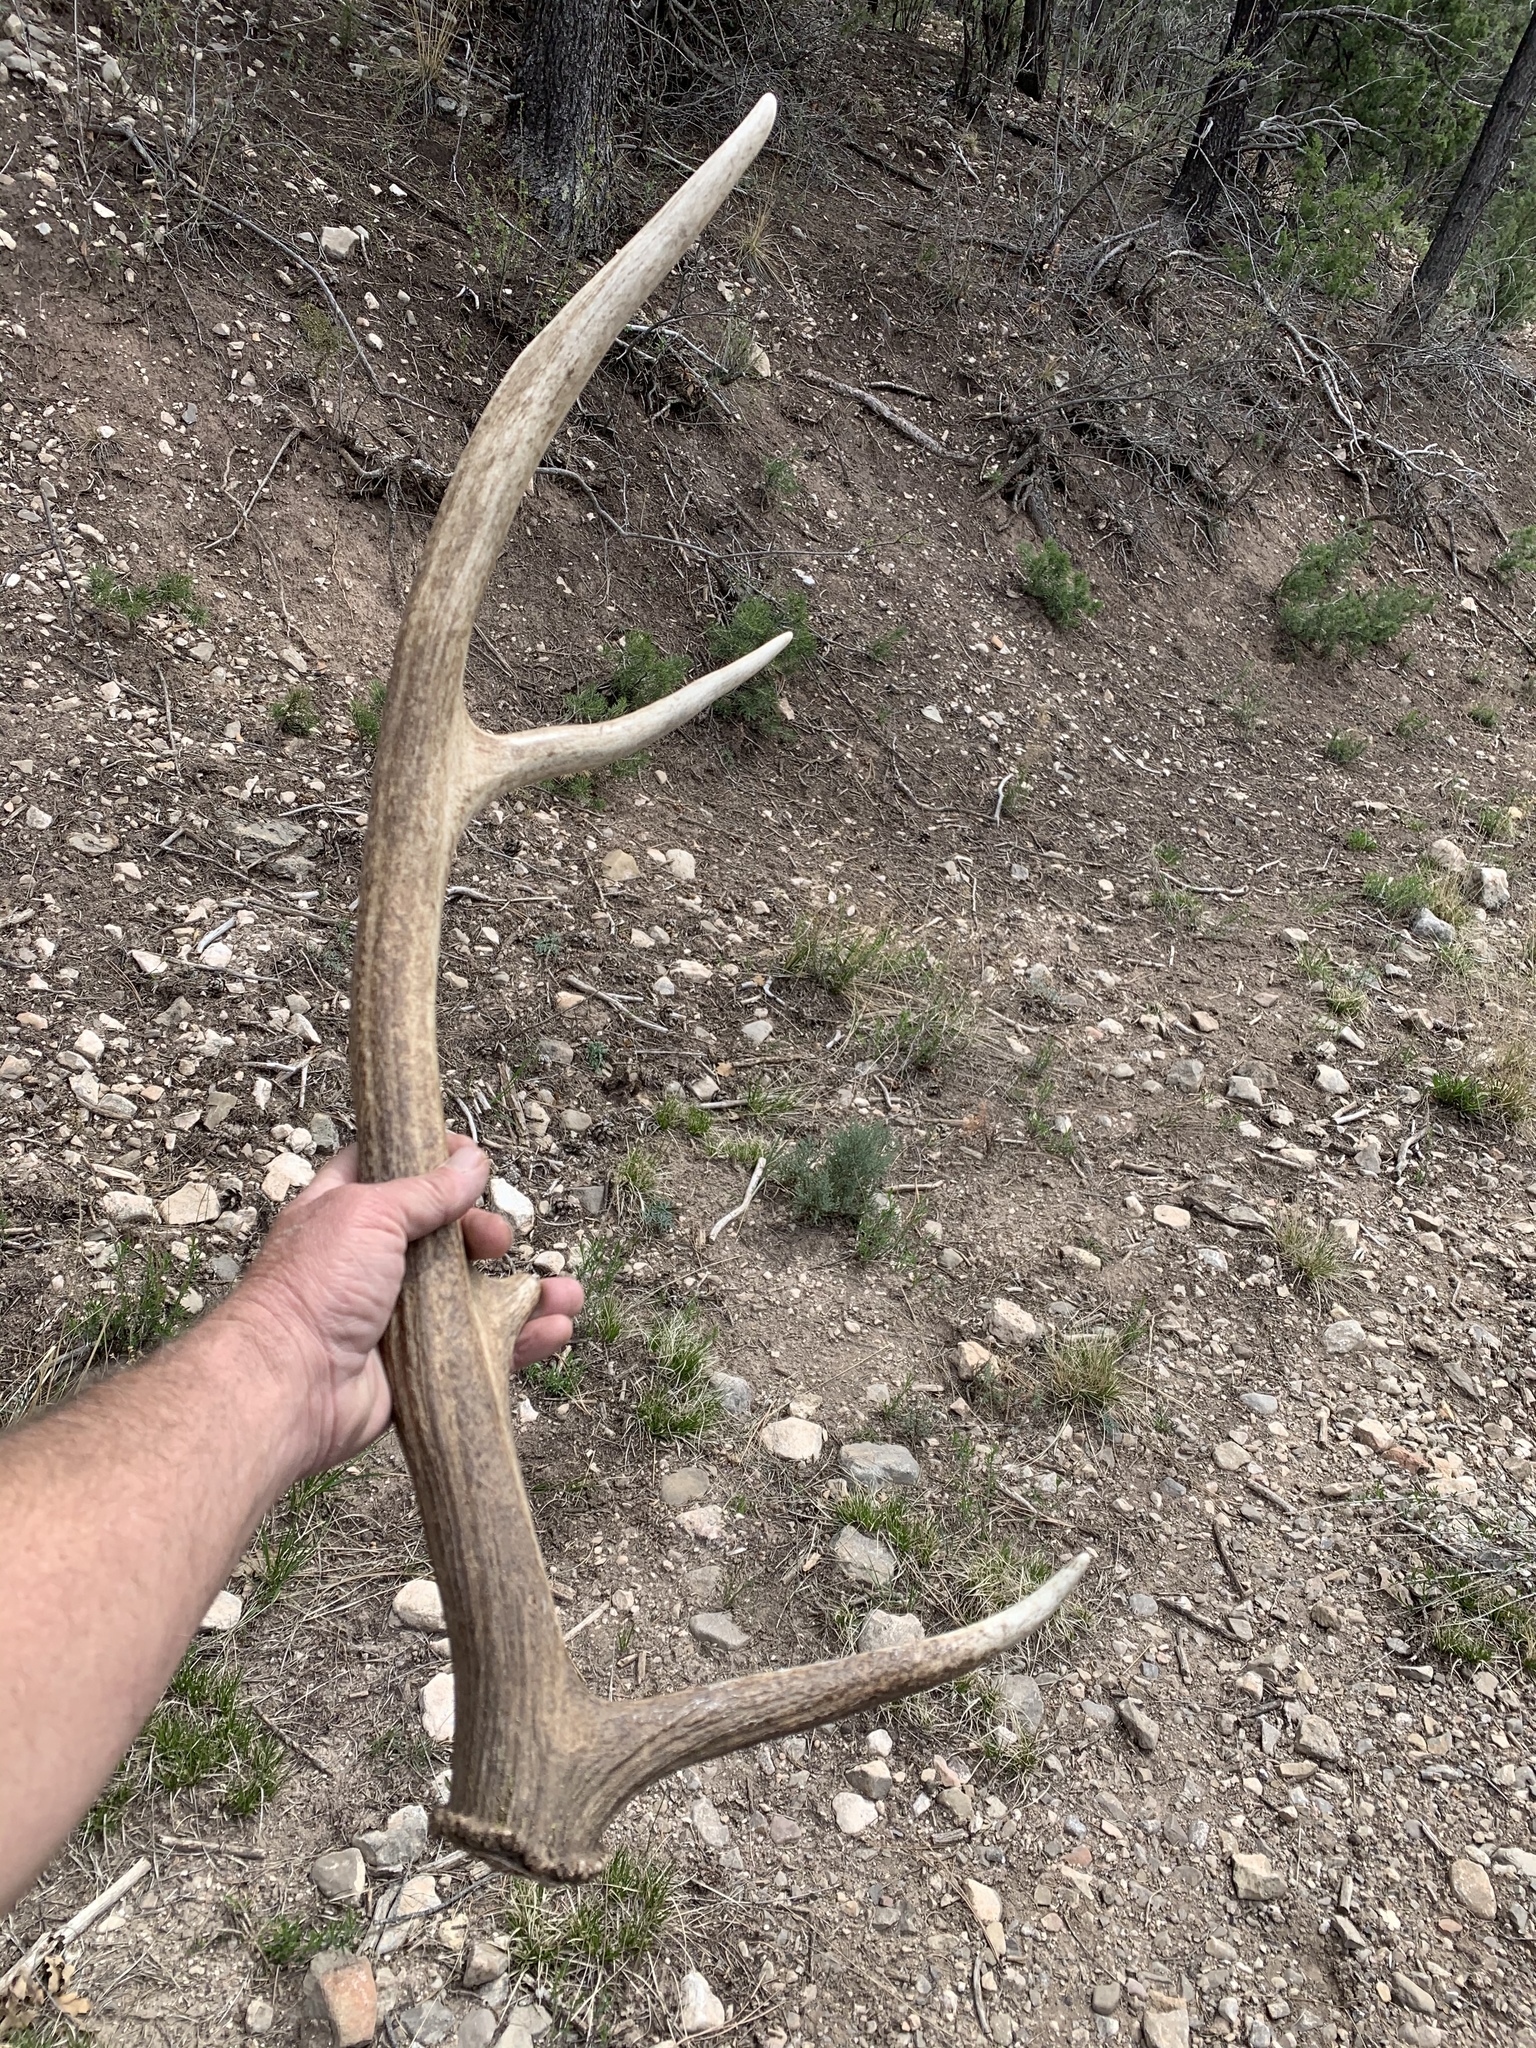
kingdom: Animalia
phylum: Chordata
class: Mammalia
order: Artiodactyla
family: Cervidae
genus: Cervus
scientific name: Cervus elaphus
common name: Red deer
